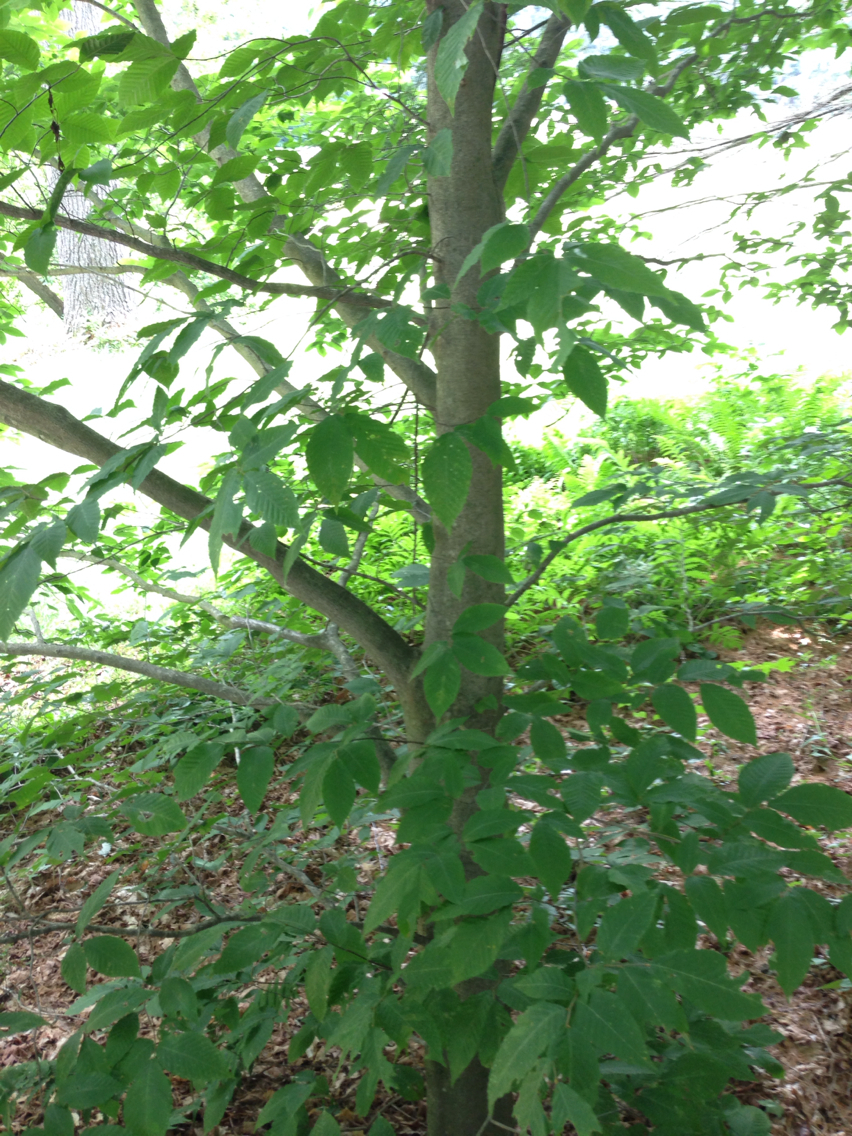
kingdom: Plantae
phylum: Tracheophyta
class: Magnoliopsida
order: Fagales
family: Fagaceae
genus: Fagus
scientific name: Fagus grandifolia
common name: American beech
